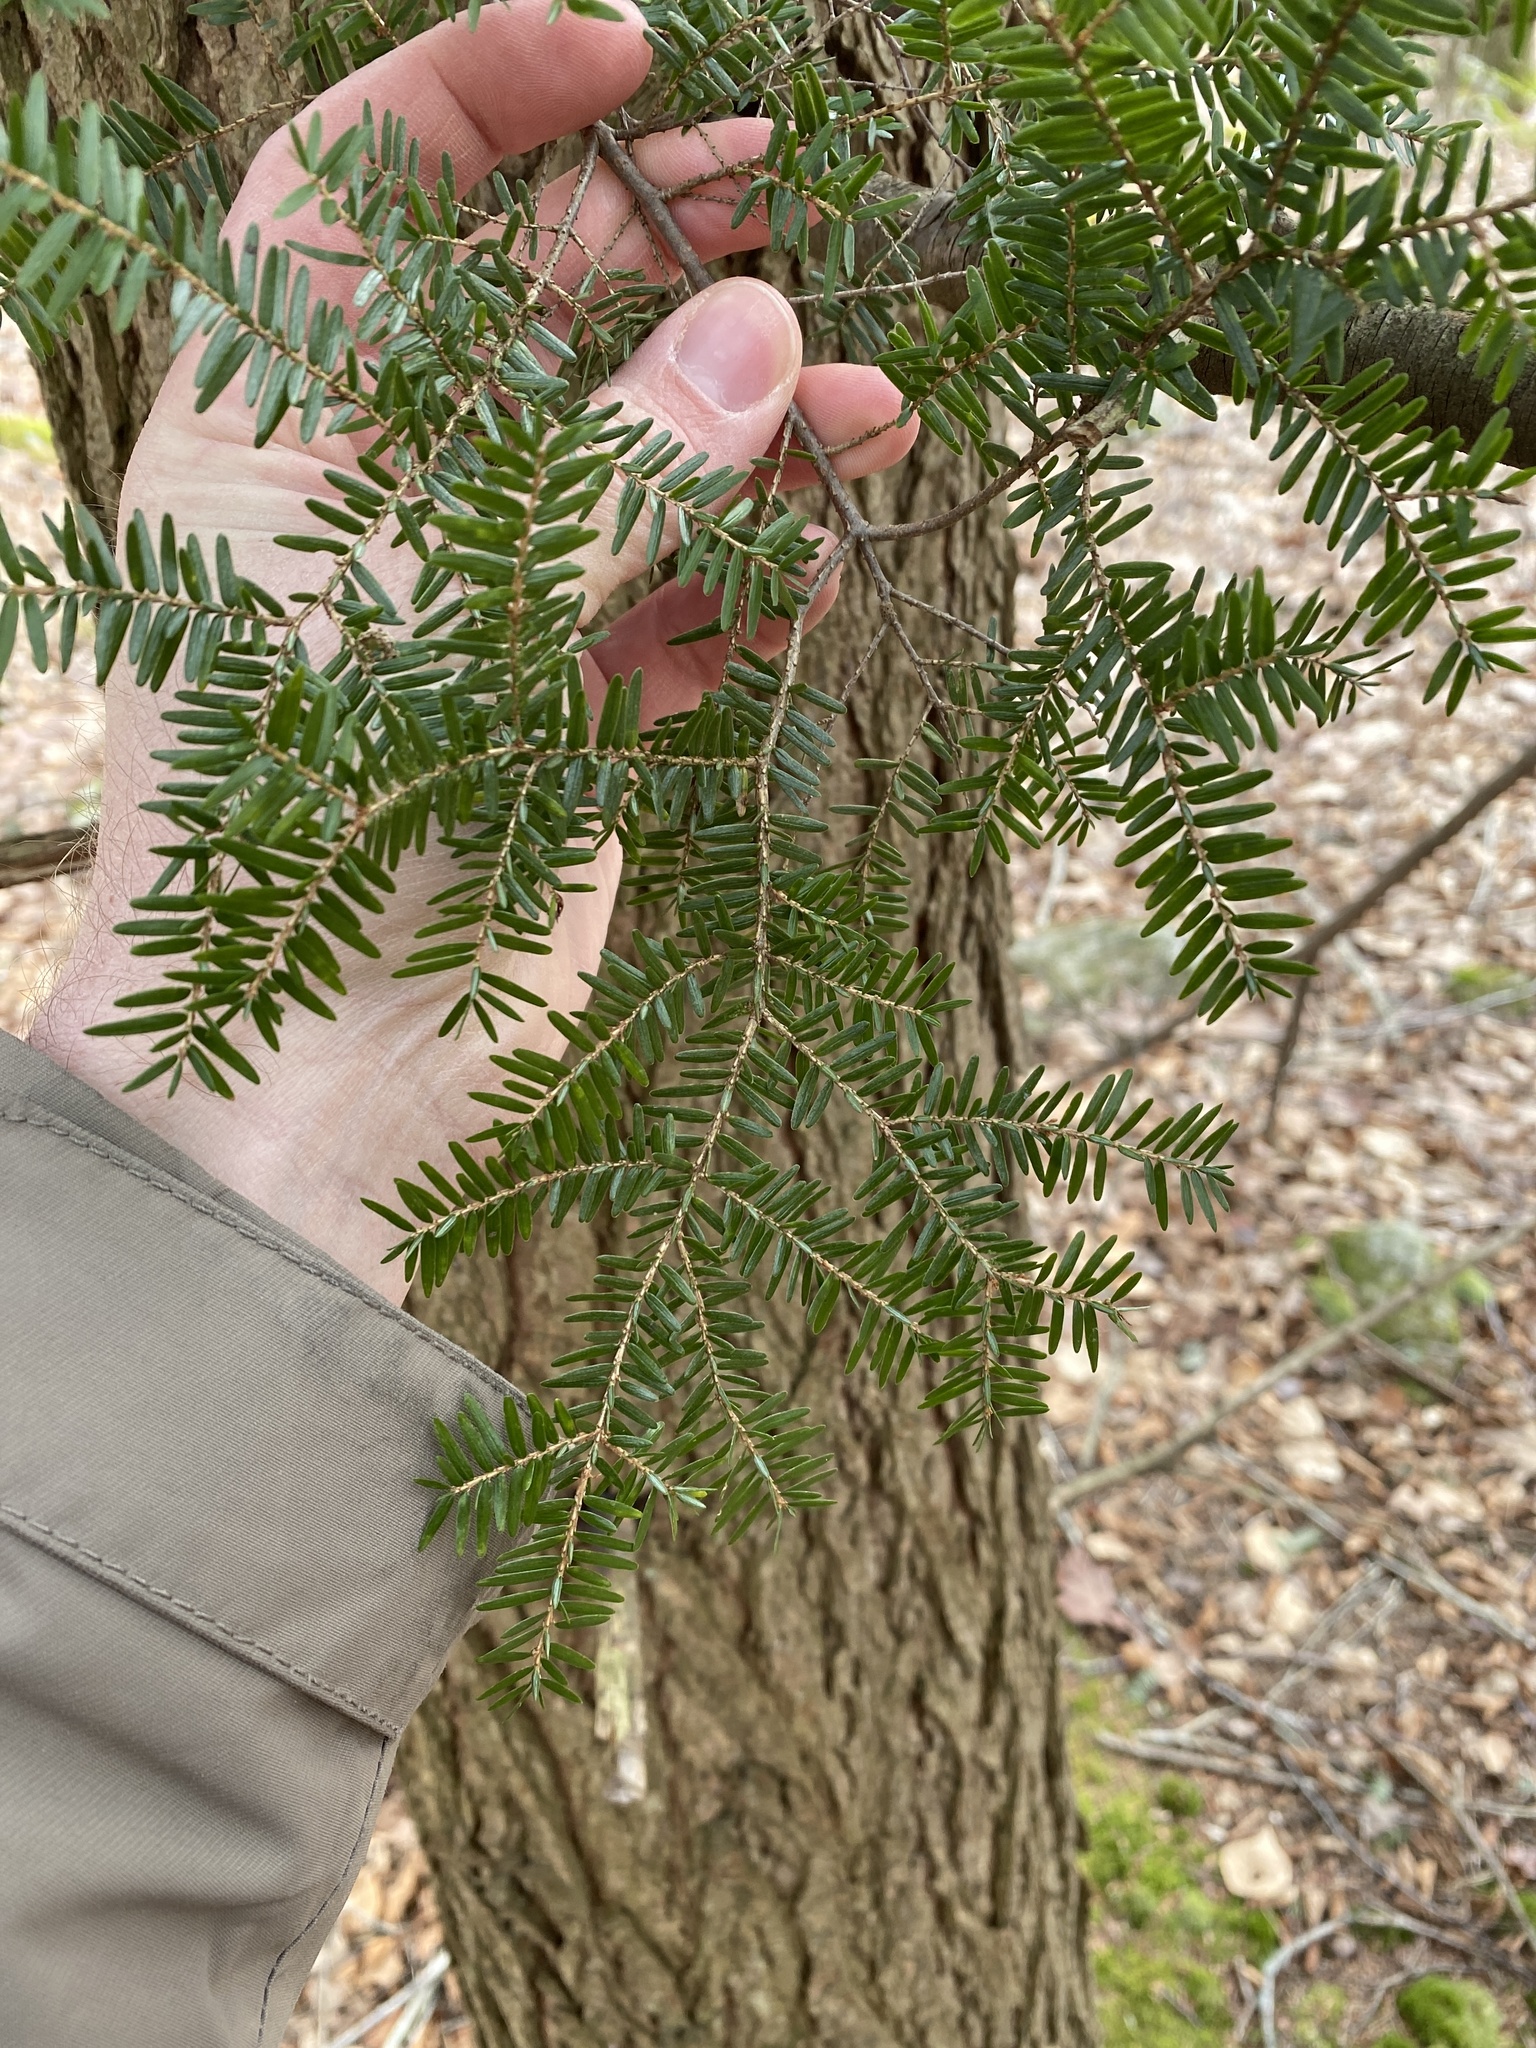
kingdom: Plantae
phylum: Tracheophyta
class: Pinopsida
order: Pinales
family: Pinaceae
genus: Tsuga
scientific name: Tsuga canadensis
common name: Eastern hemlock
